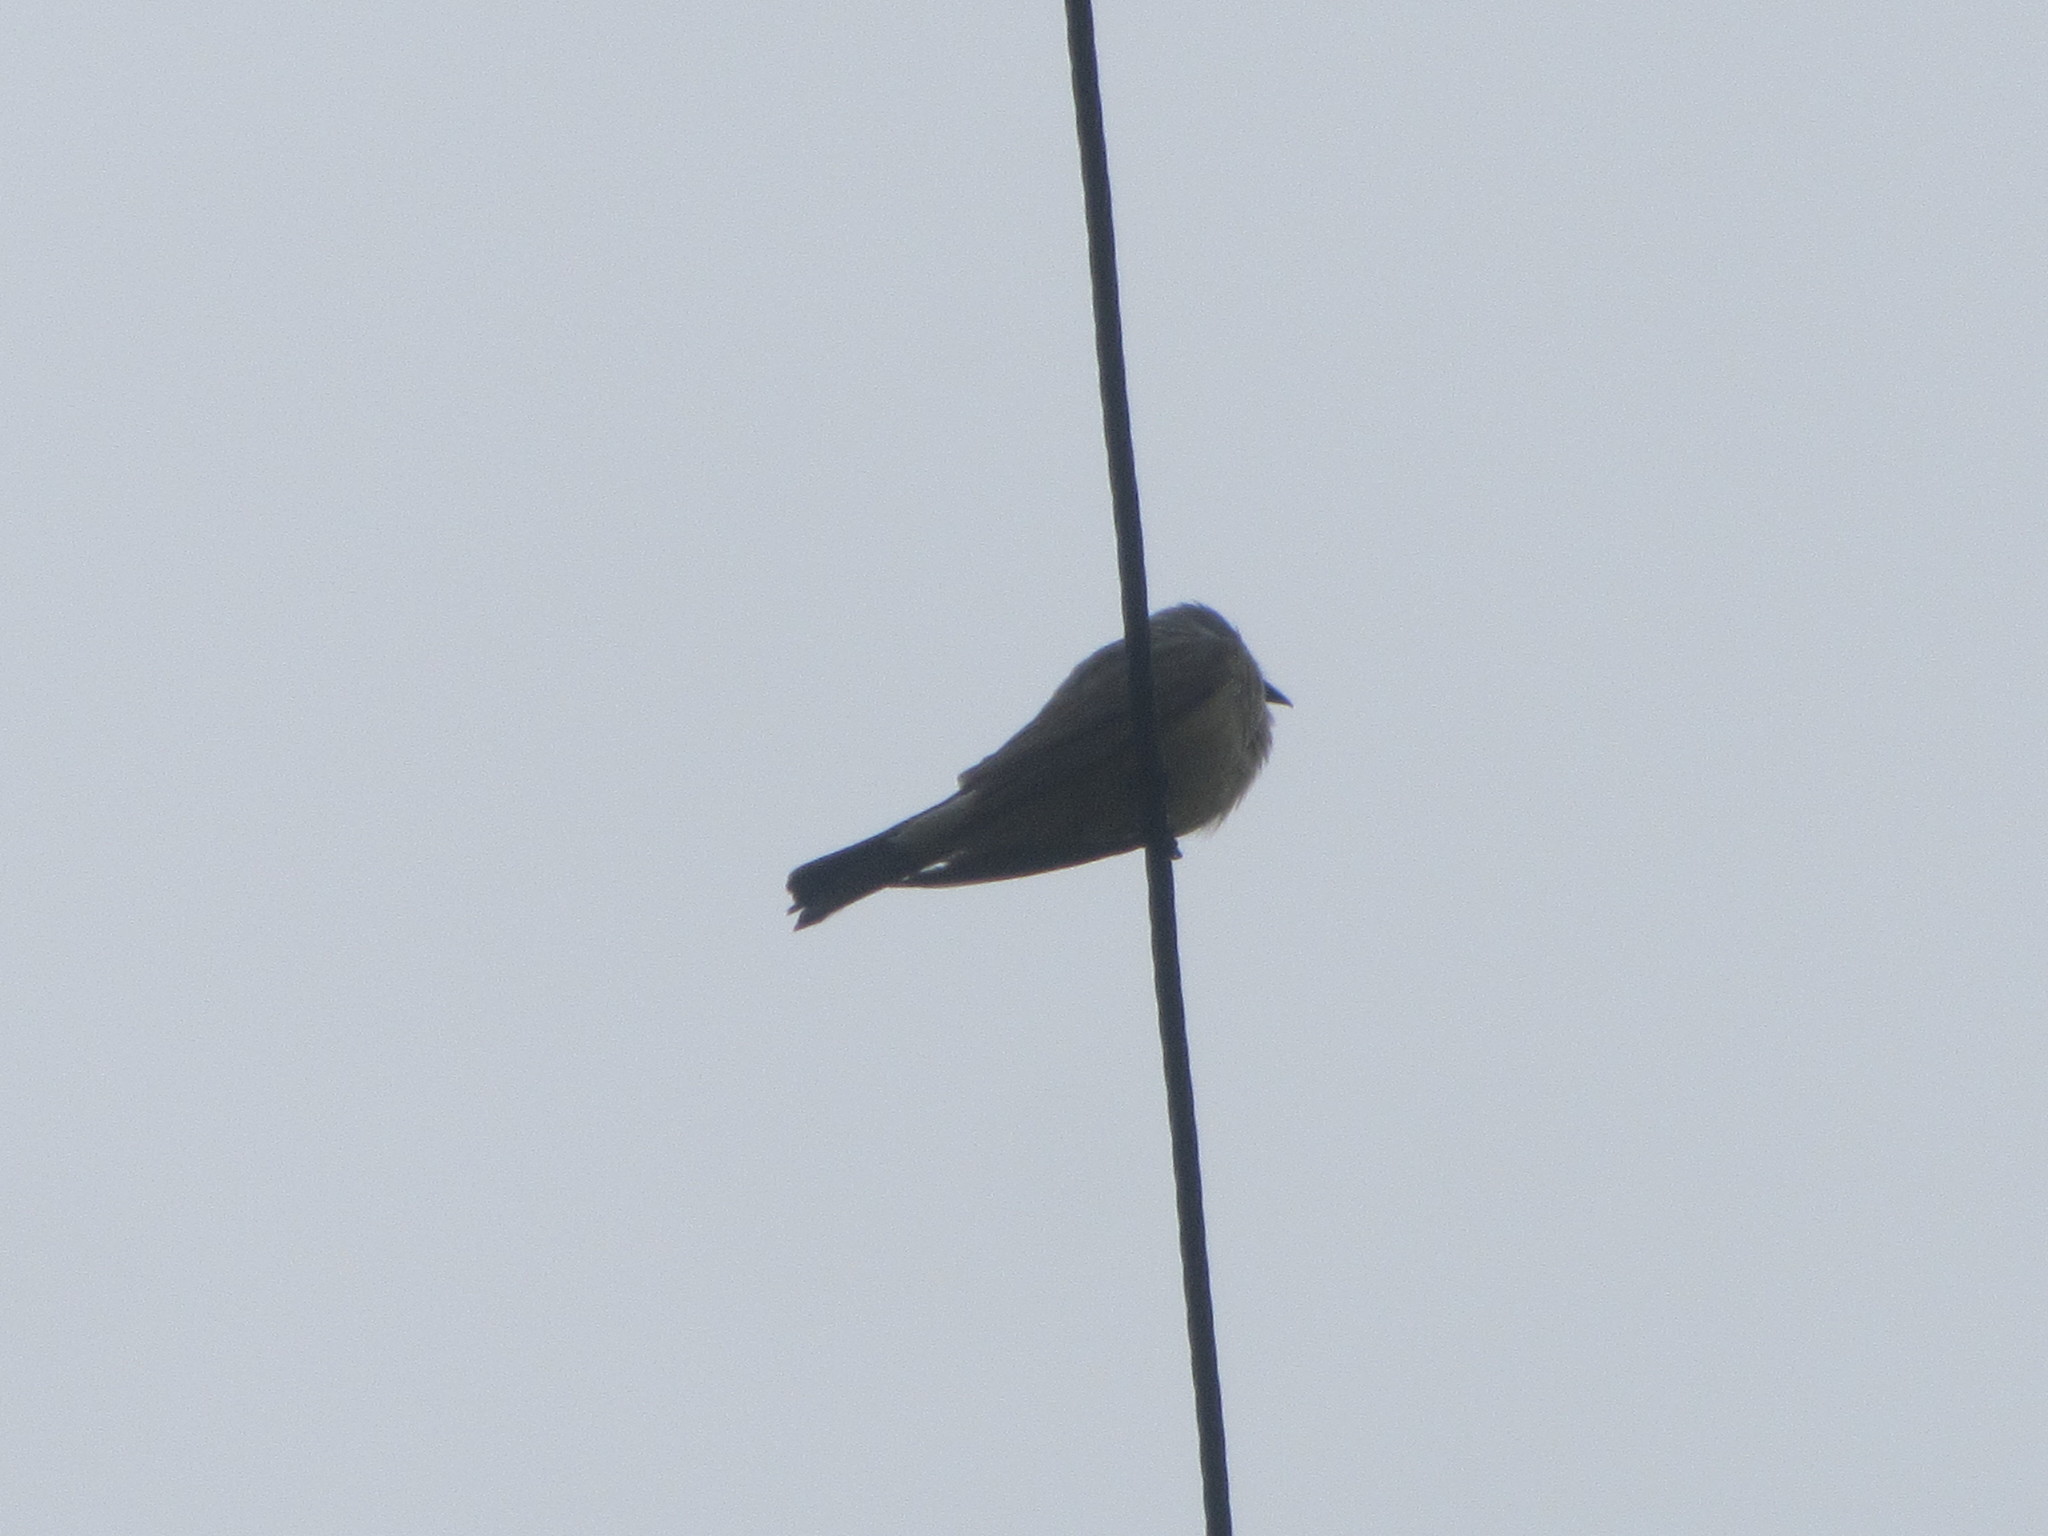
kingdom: Animalia
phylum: Chordata
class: Aves
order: Passeriformes
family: Tyrannidae
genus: Tyrannus
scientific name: Tyrannus verticalis
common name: Western kingbird
